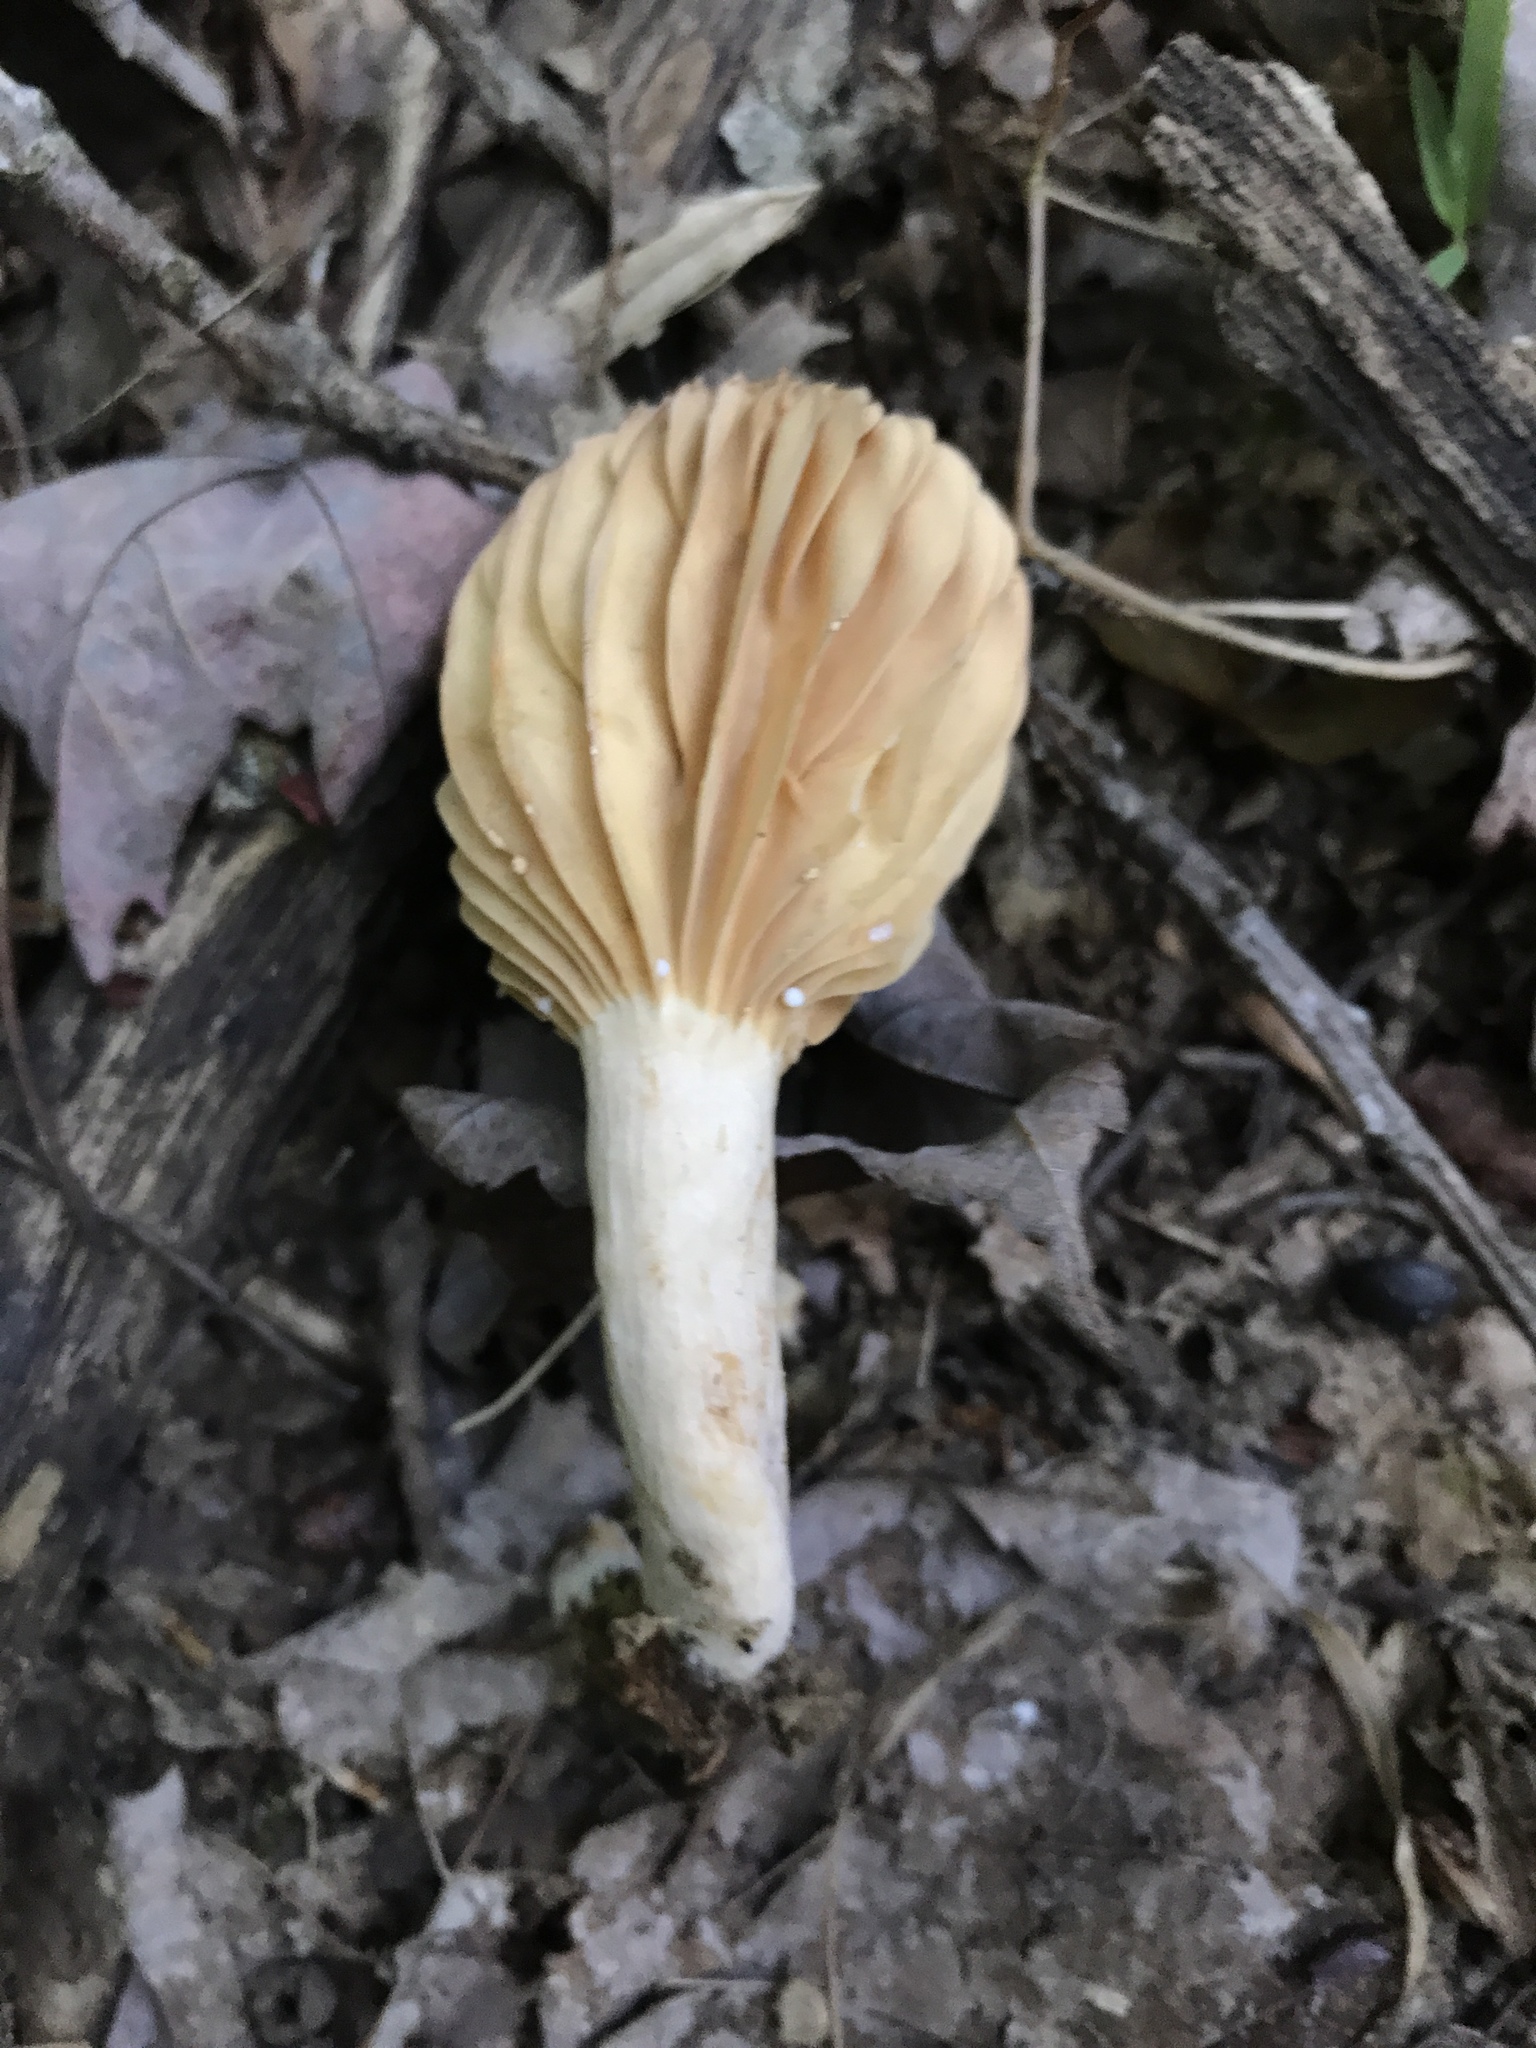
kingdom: Fungi
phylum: Basidiomycota
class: Agaricomycetes
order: Russulales
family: Russulaceae
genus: Lactarius
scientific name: Lactarius subplinthogalus
